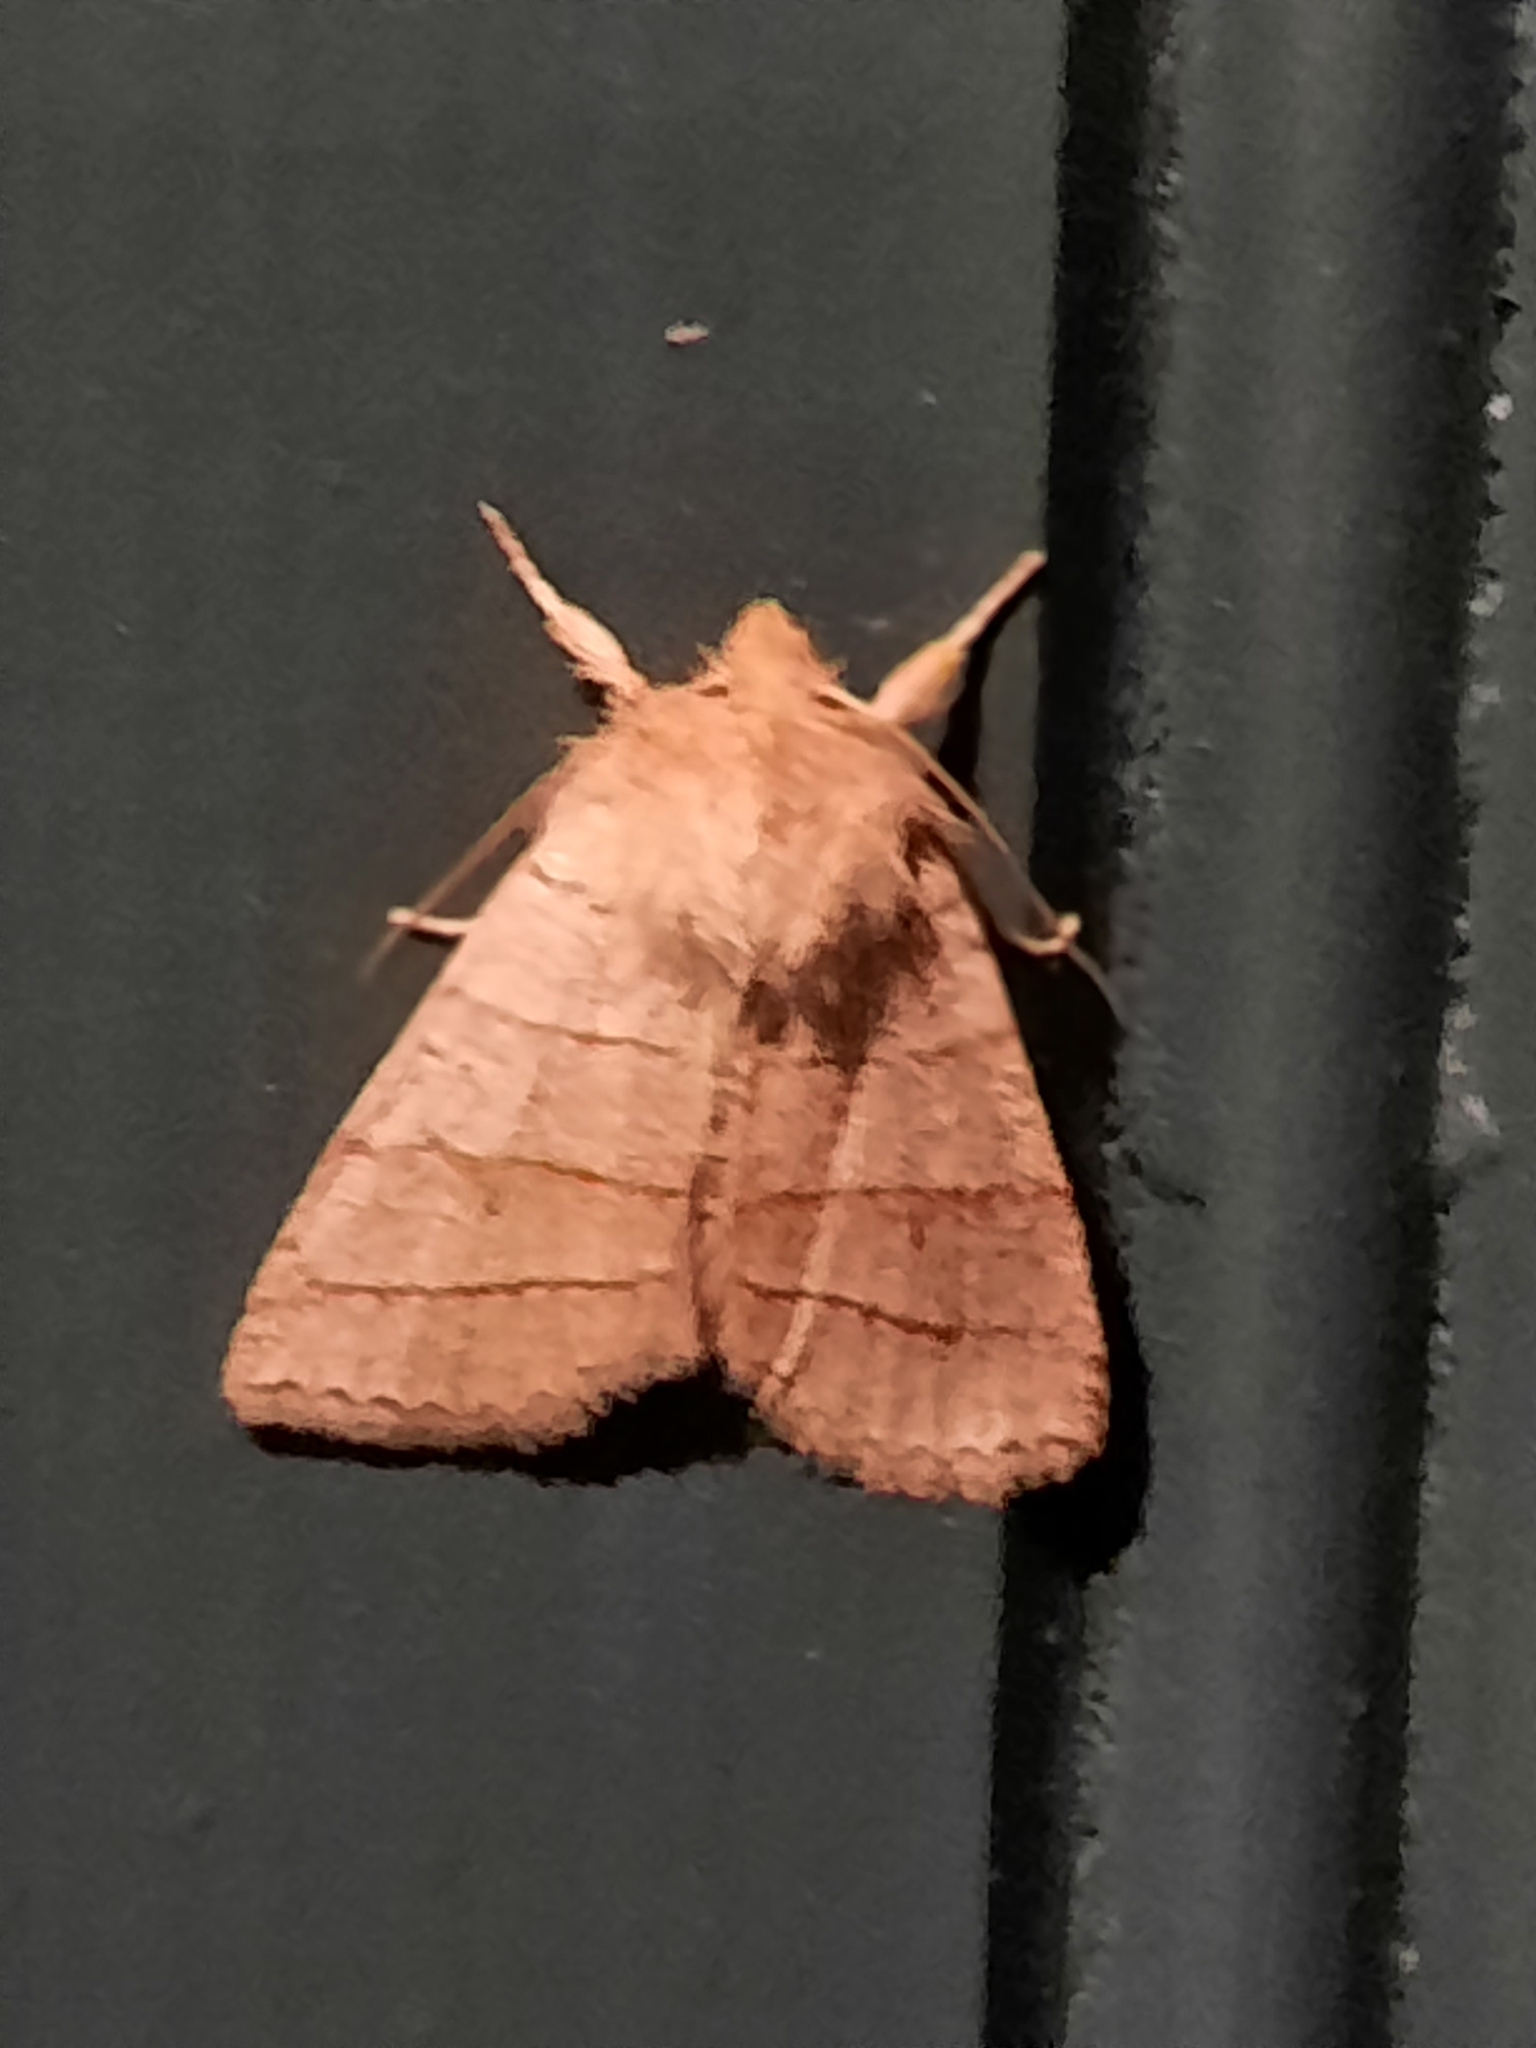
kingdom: Animalia
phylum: Arthropoda
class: Insecta
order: Lepidoptera
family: Noctuidae
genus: Pyreferra
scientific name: Pyreferra citrombra
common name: Citrine sallow
